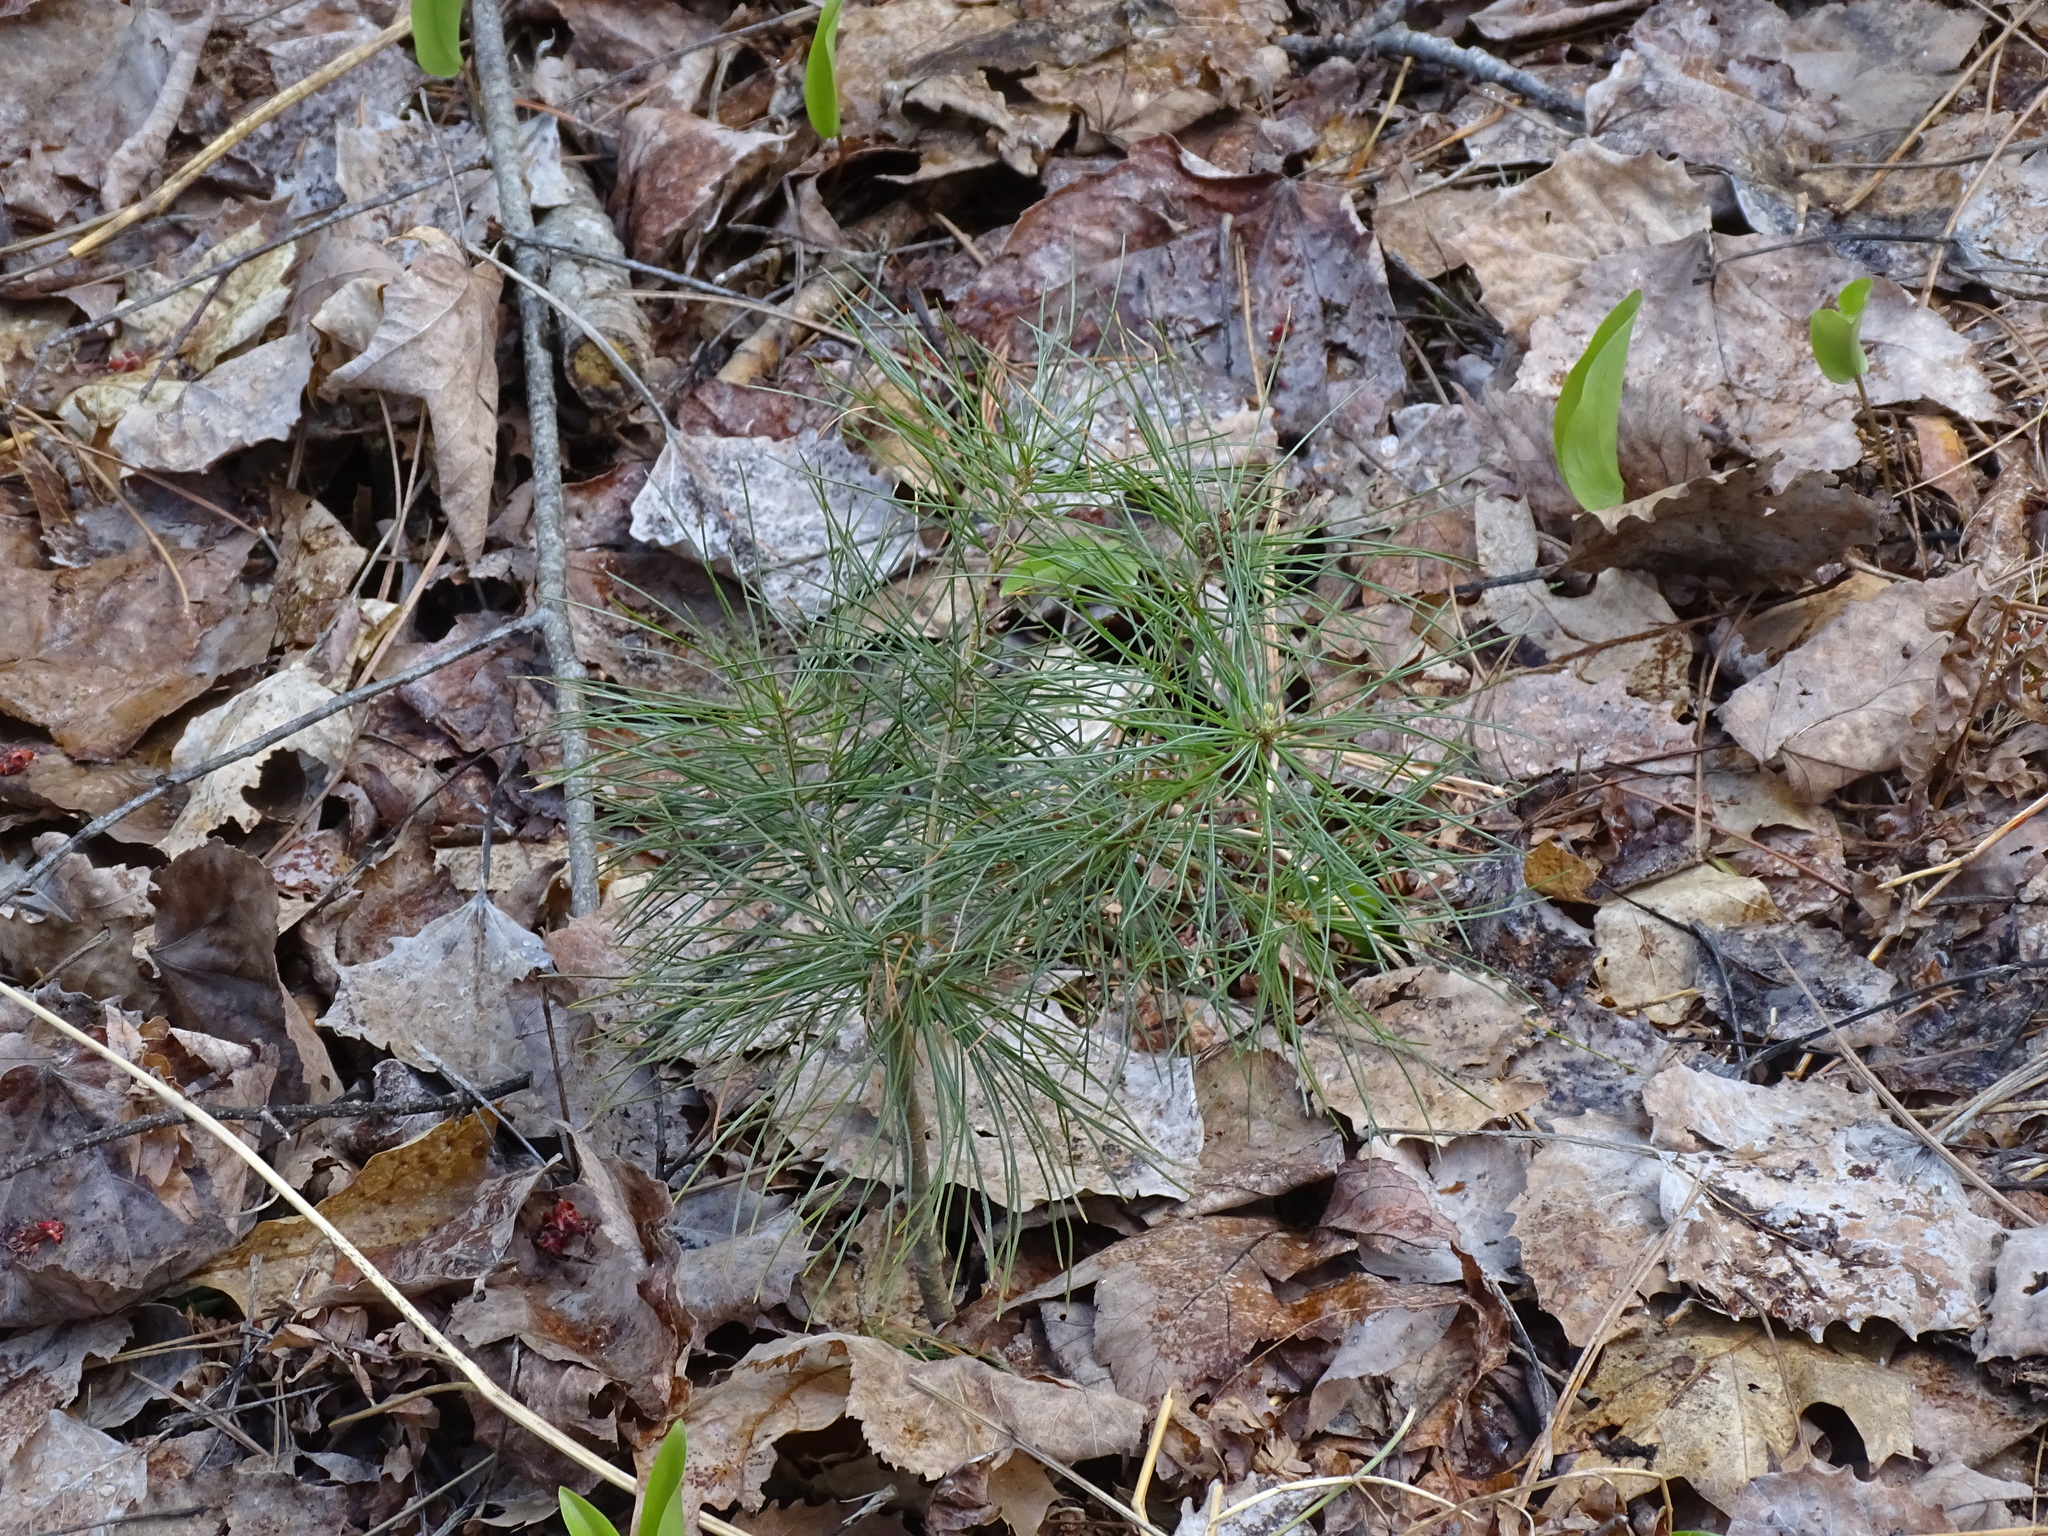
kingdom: Plantae
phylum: Tracheophyta
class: Pinopsida
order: Pinales
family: Pinaceae
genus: Pinus
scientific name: Pinus strobus
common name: Weymouth pine
